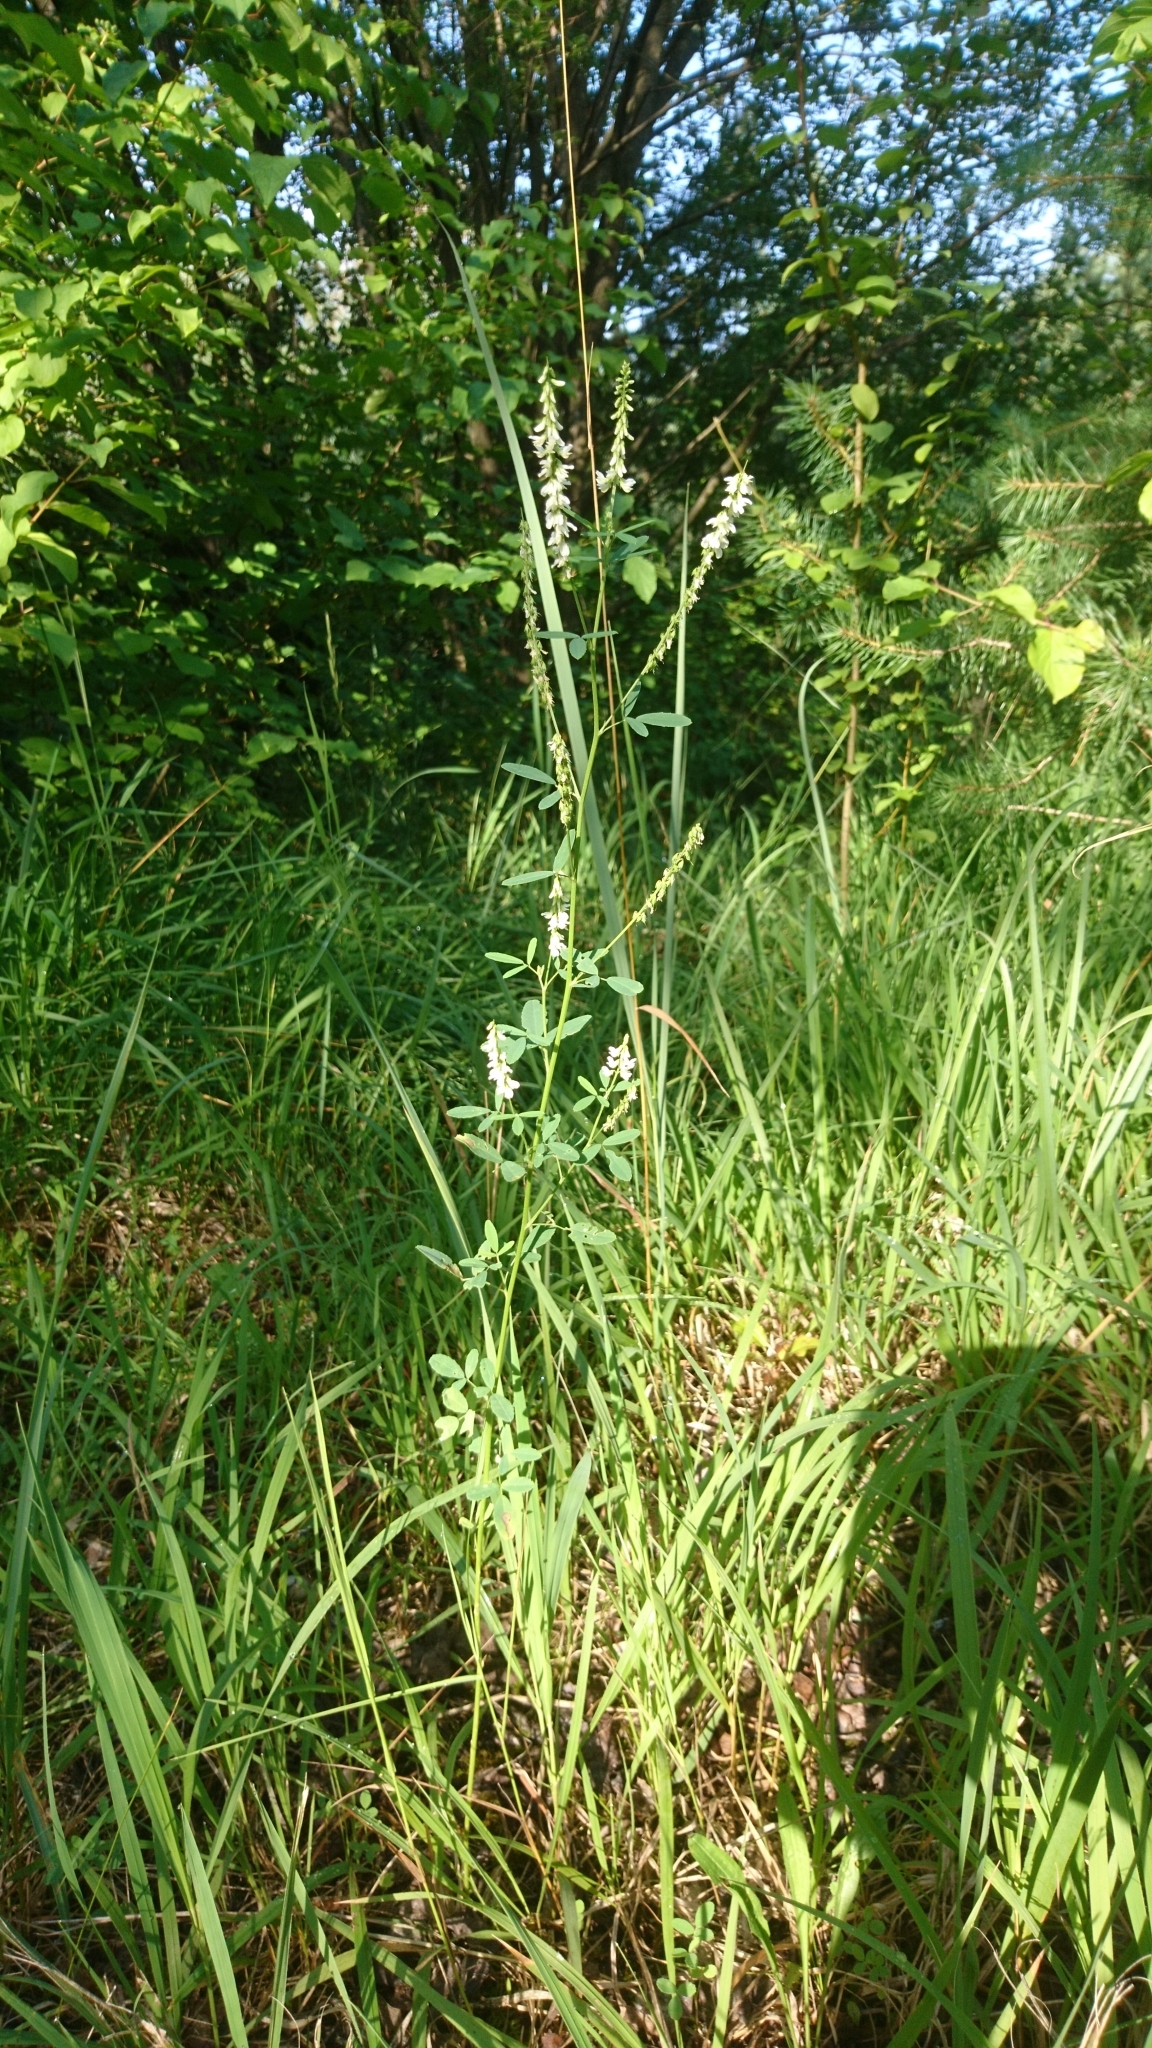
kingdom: Plantae
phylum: Tracheophyta
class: Magnoliopsida
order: Fabales
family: Fabaceae
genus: Melilotus
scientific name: Melilotus albus
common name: White melilot
